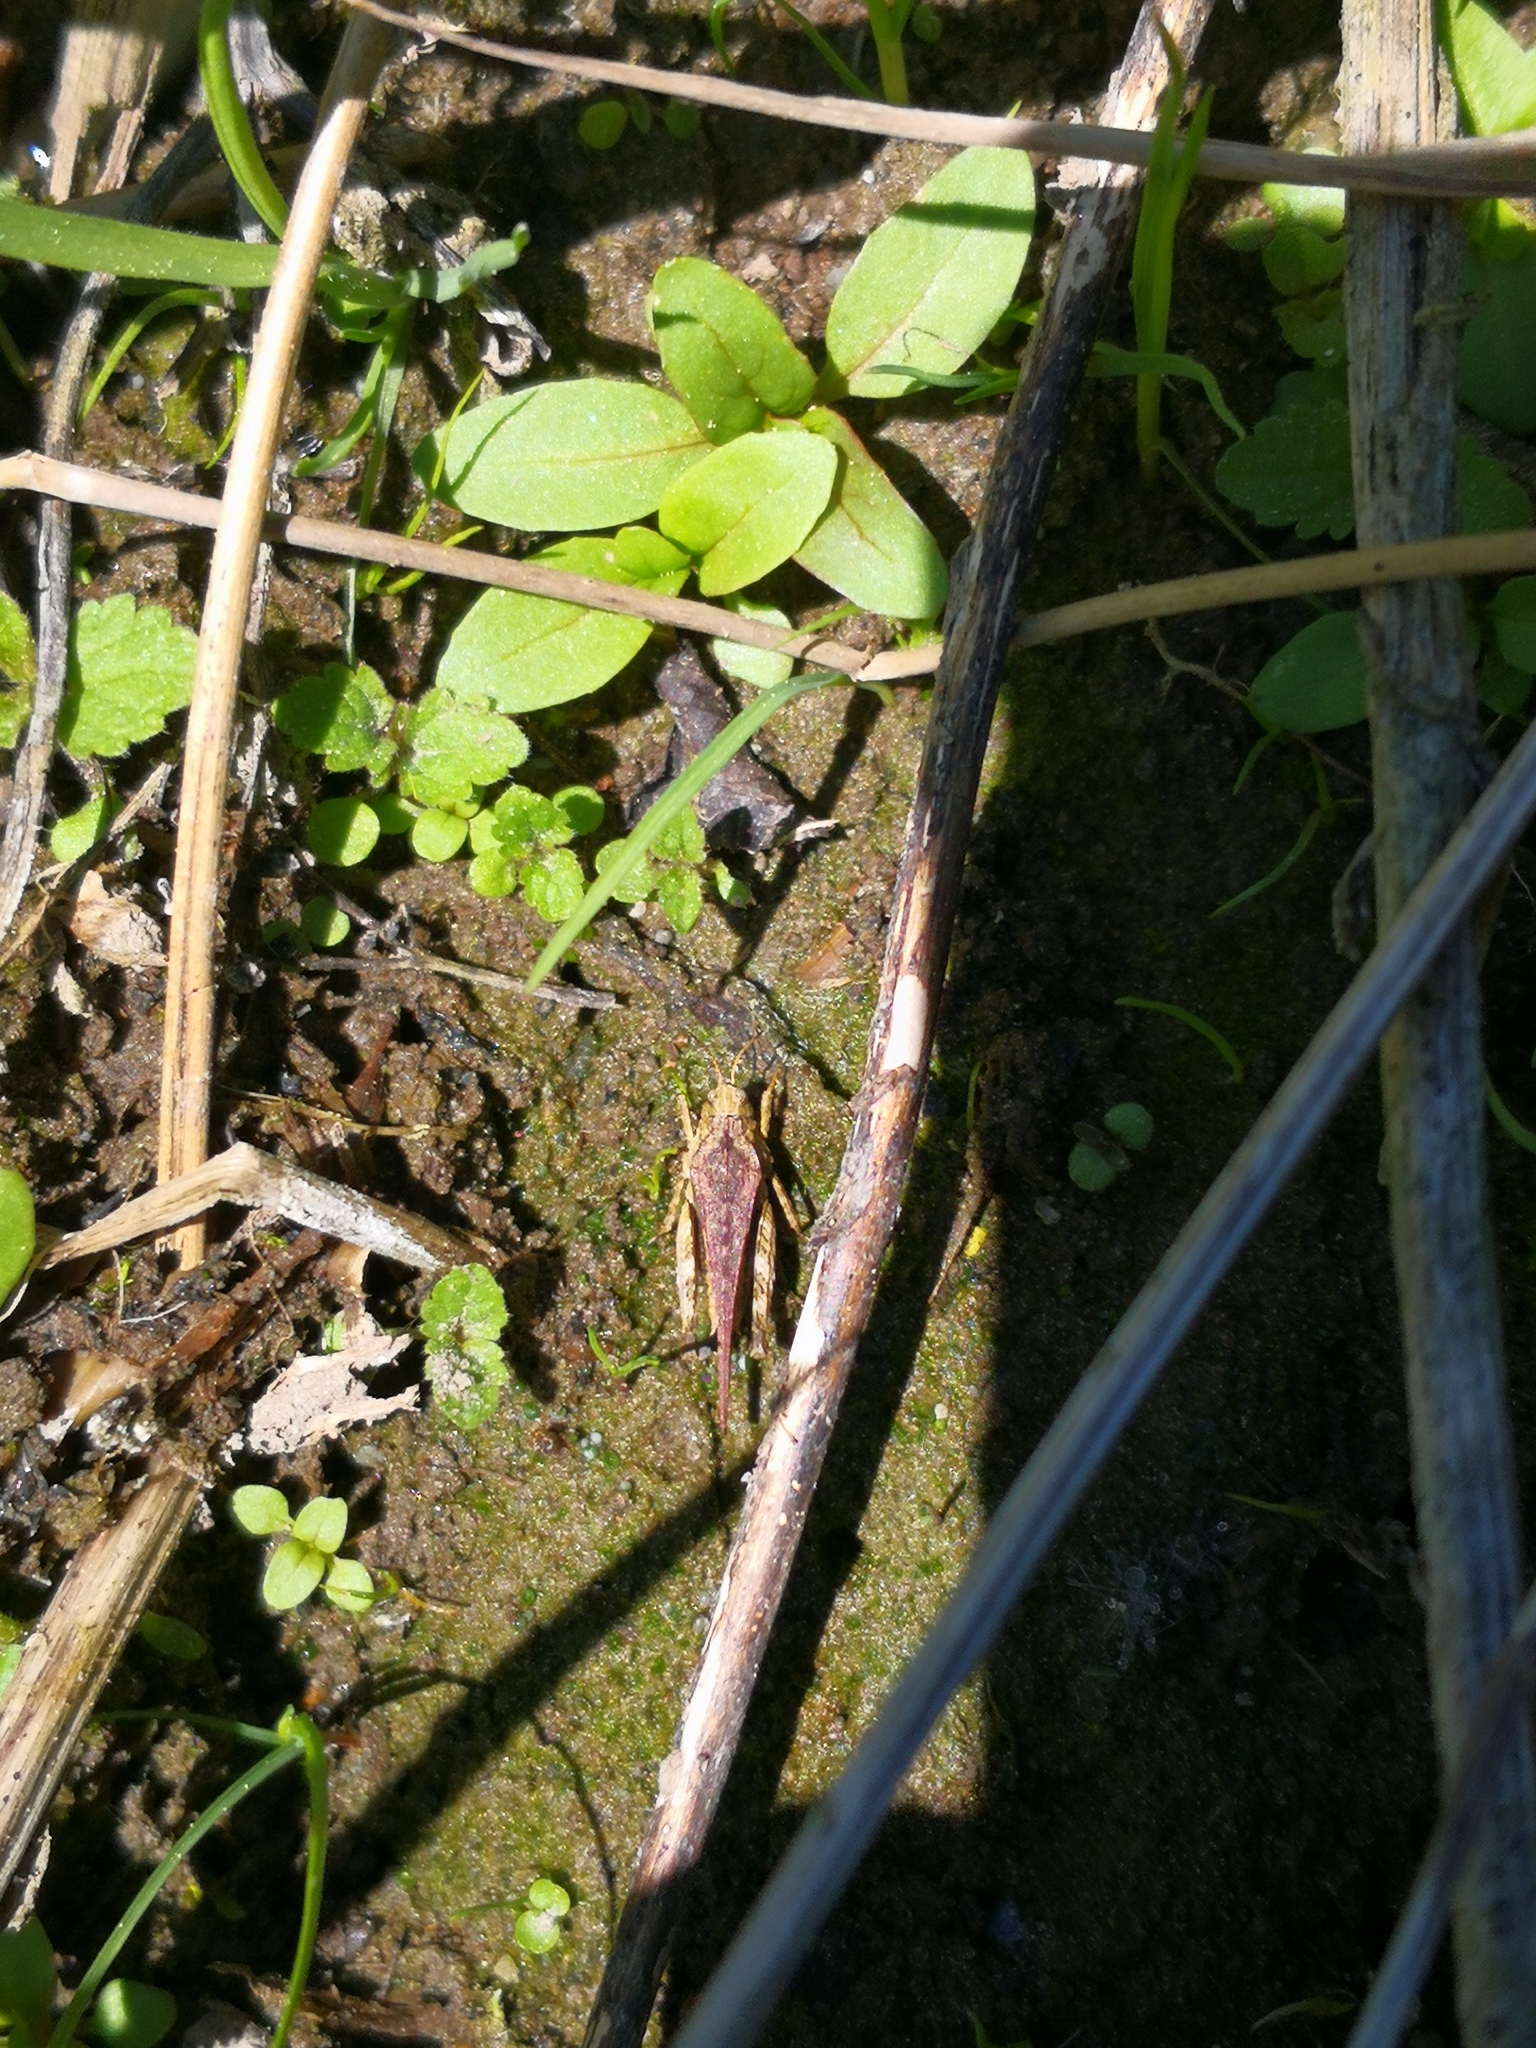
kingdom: Animalia
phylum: Arthropoda
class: Insecta
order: Orthoptera
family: Tetrigidae
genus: Tetrix
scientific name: Tetrix subulata
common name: Slender ground-hopper
